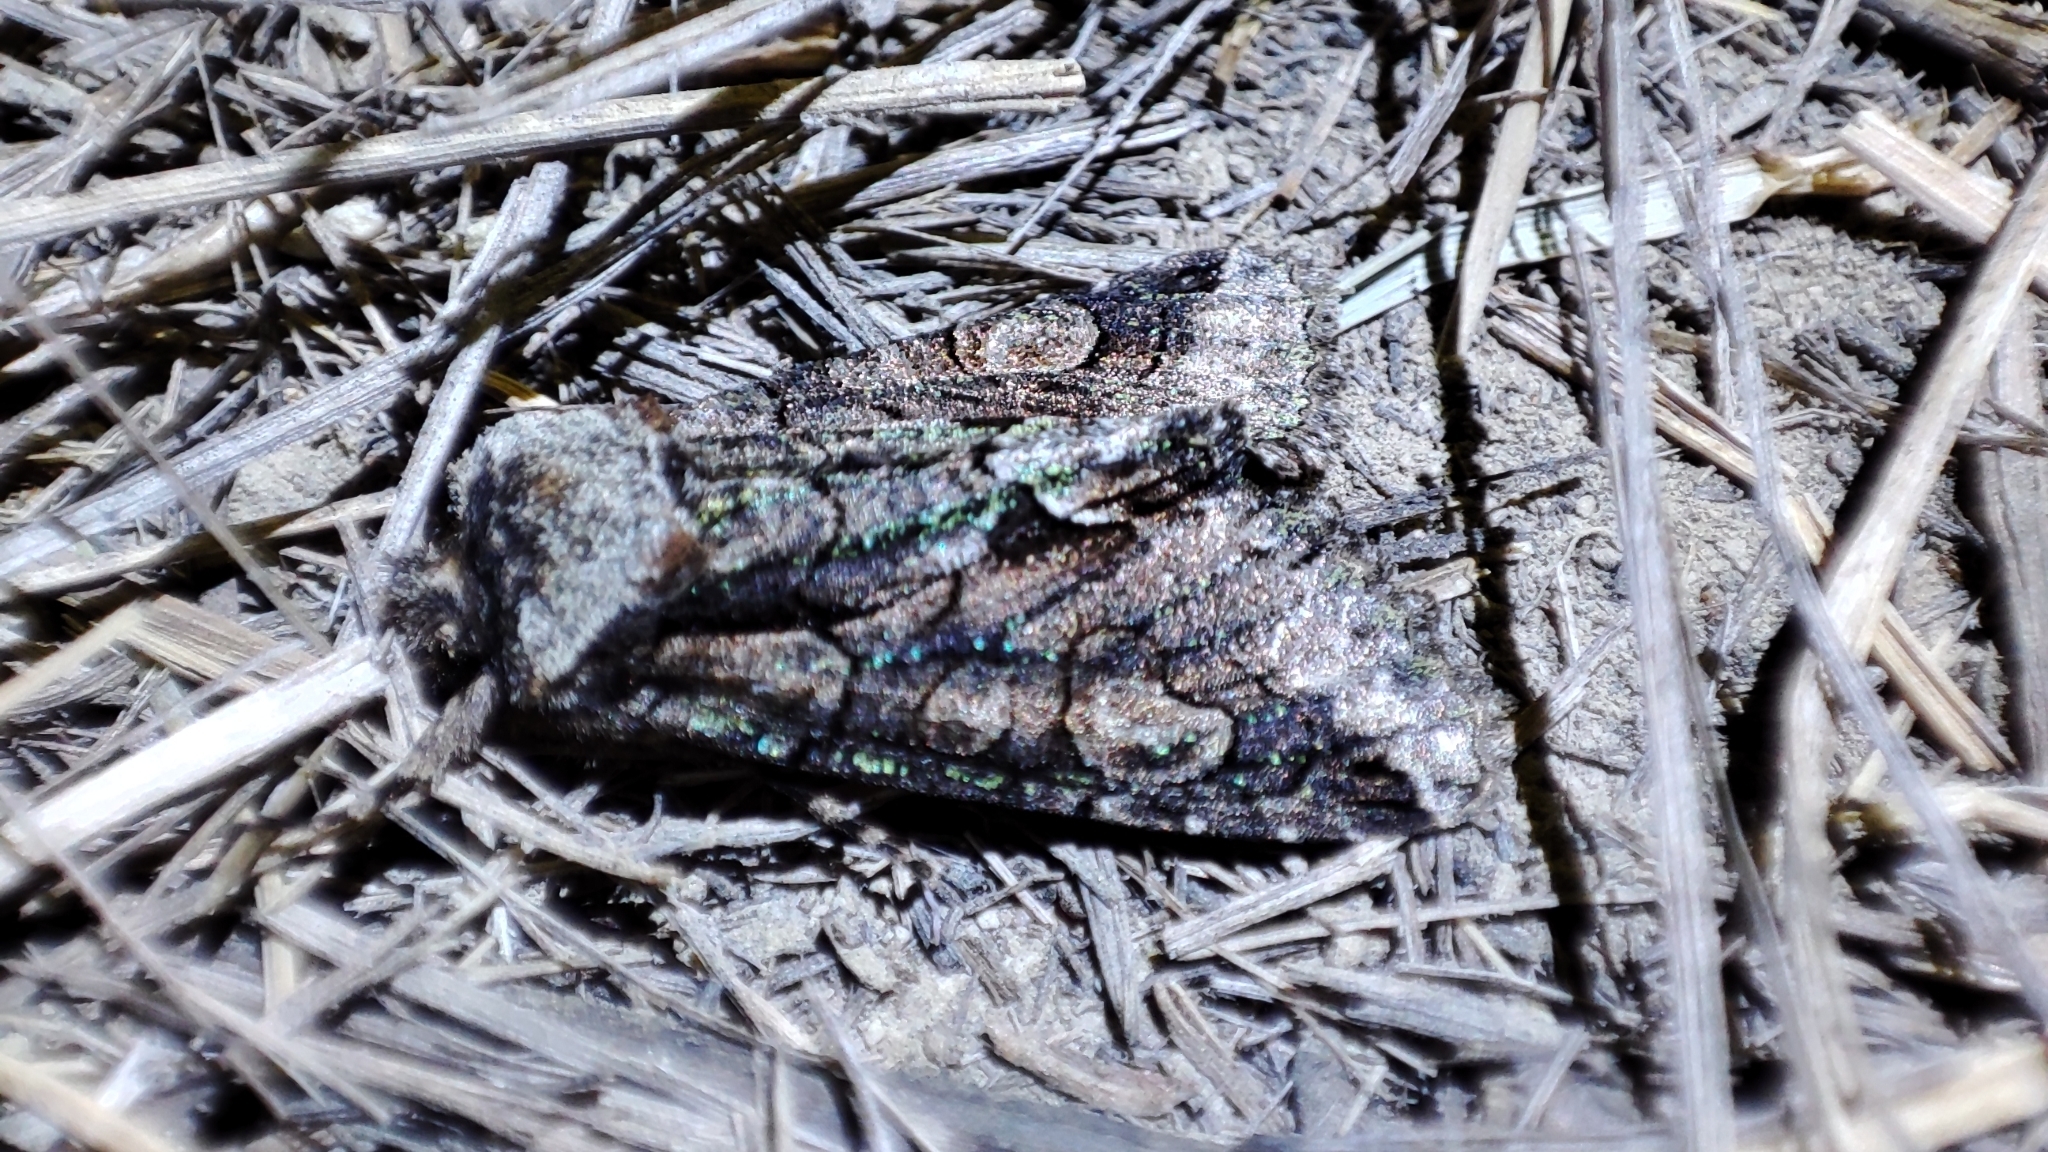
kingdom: Animalia
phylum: Arthropoda
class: Insecta
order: Lepidoptera
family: Noctuidae
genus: Allophyes
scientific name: Allophyes oxyacanthae
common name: Green-brindled crescent
